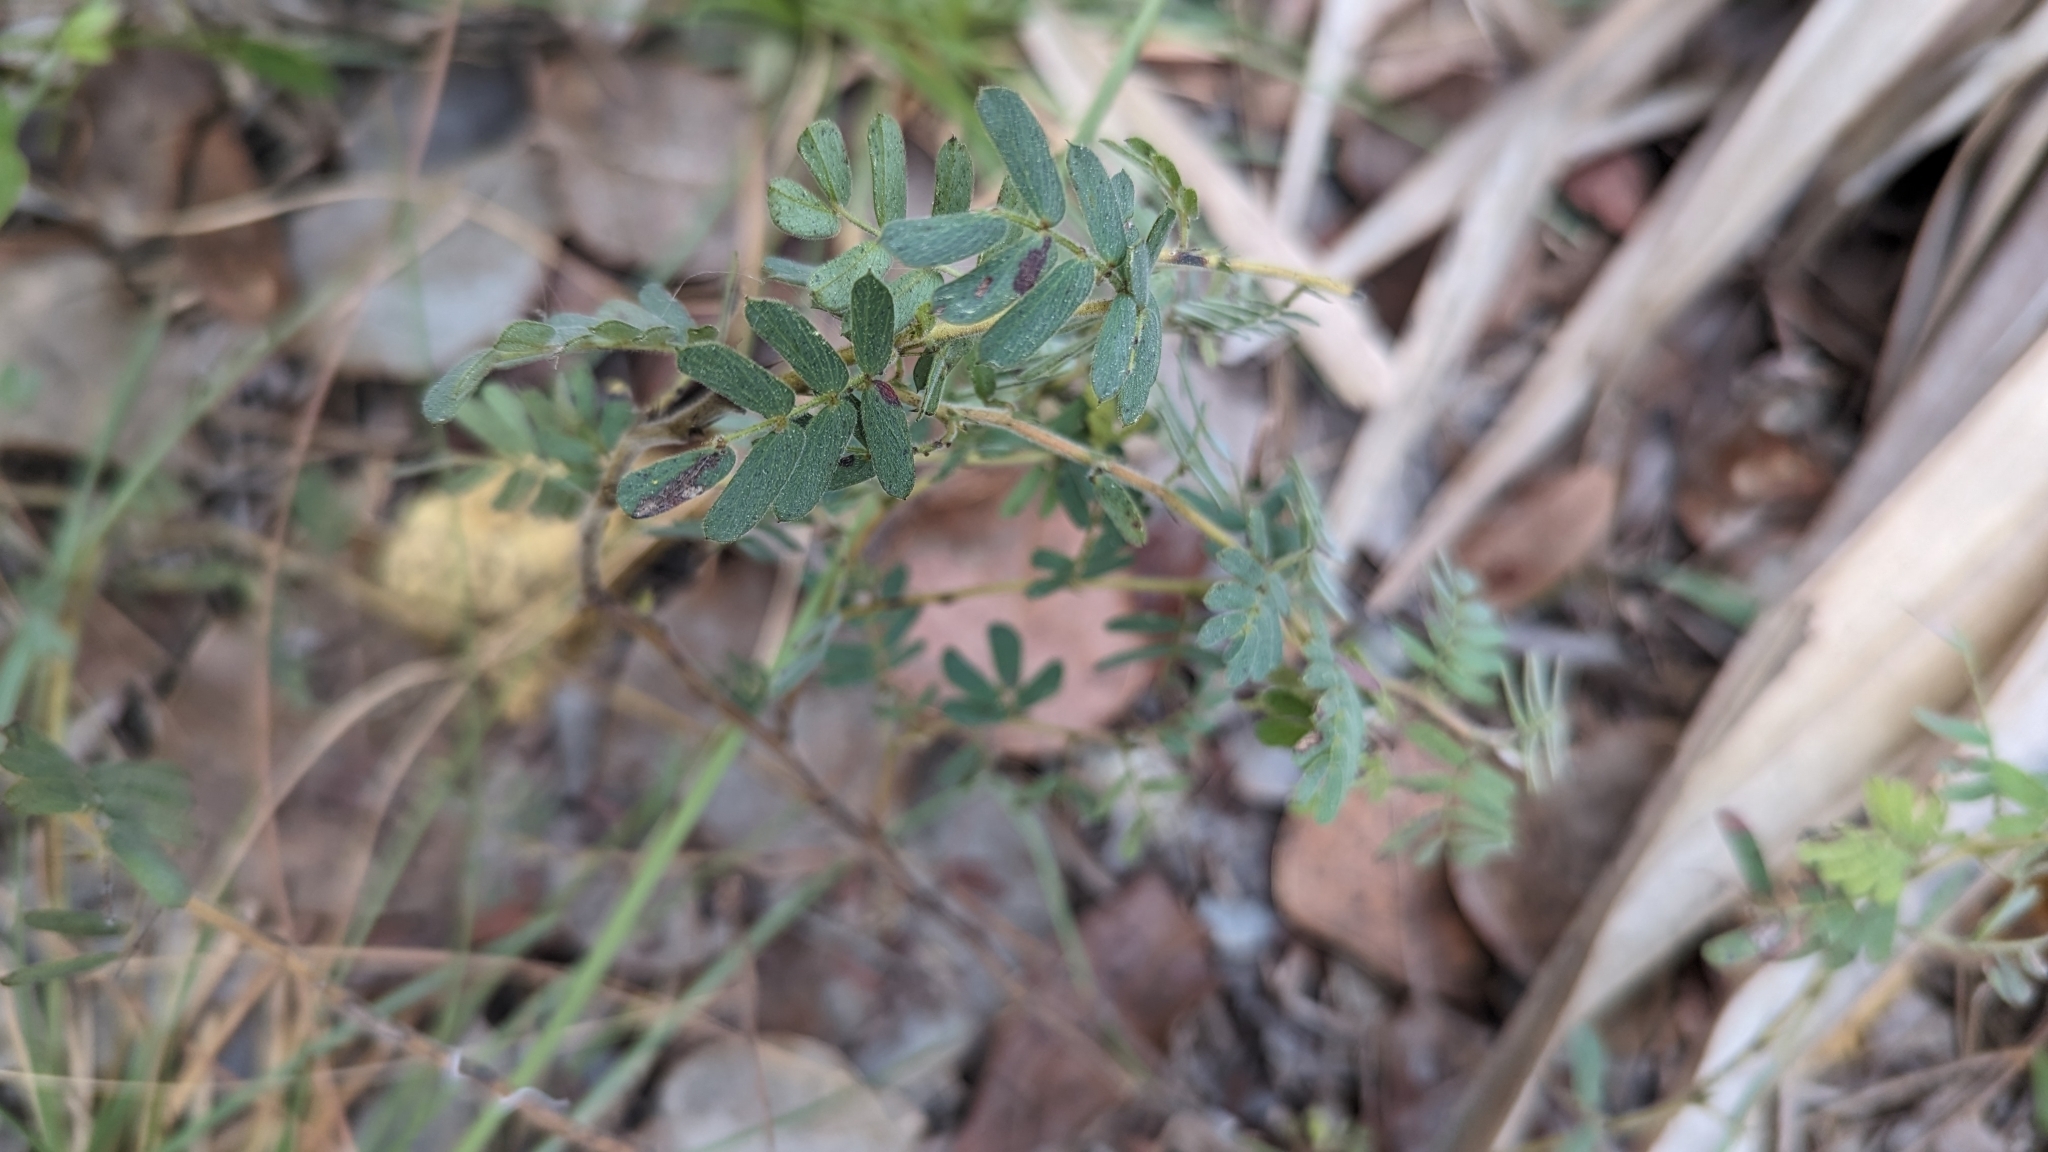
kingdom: Plantae
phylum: Tracheophyta
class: Magnoliopsida
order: Fabales
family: Fabaceae
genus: Chamaecrista
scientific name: Chamaecrista lineata
